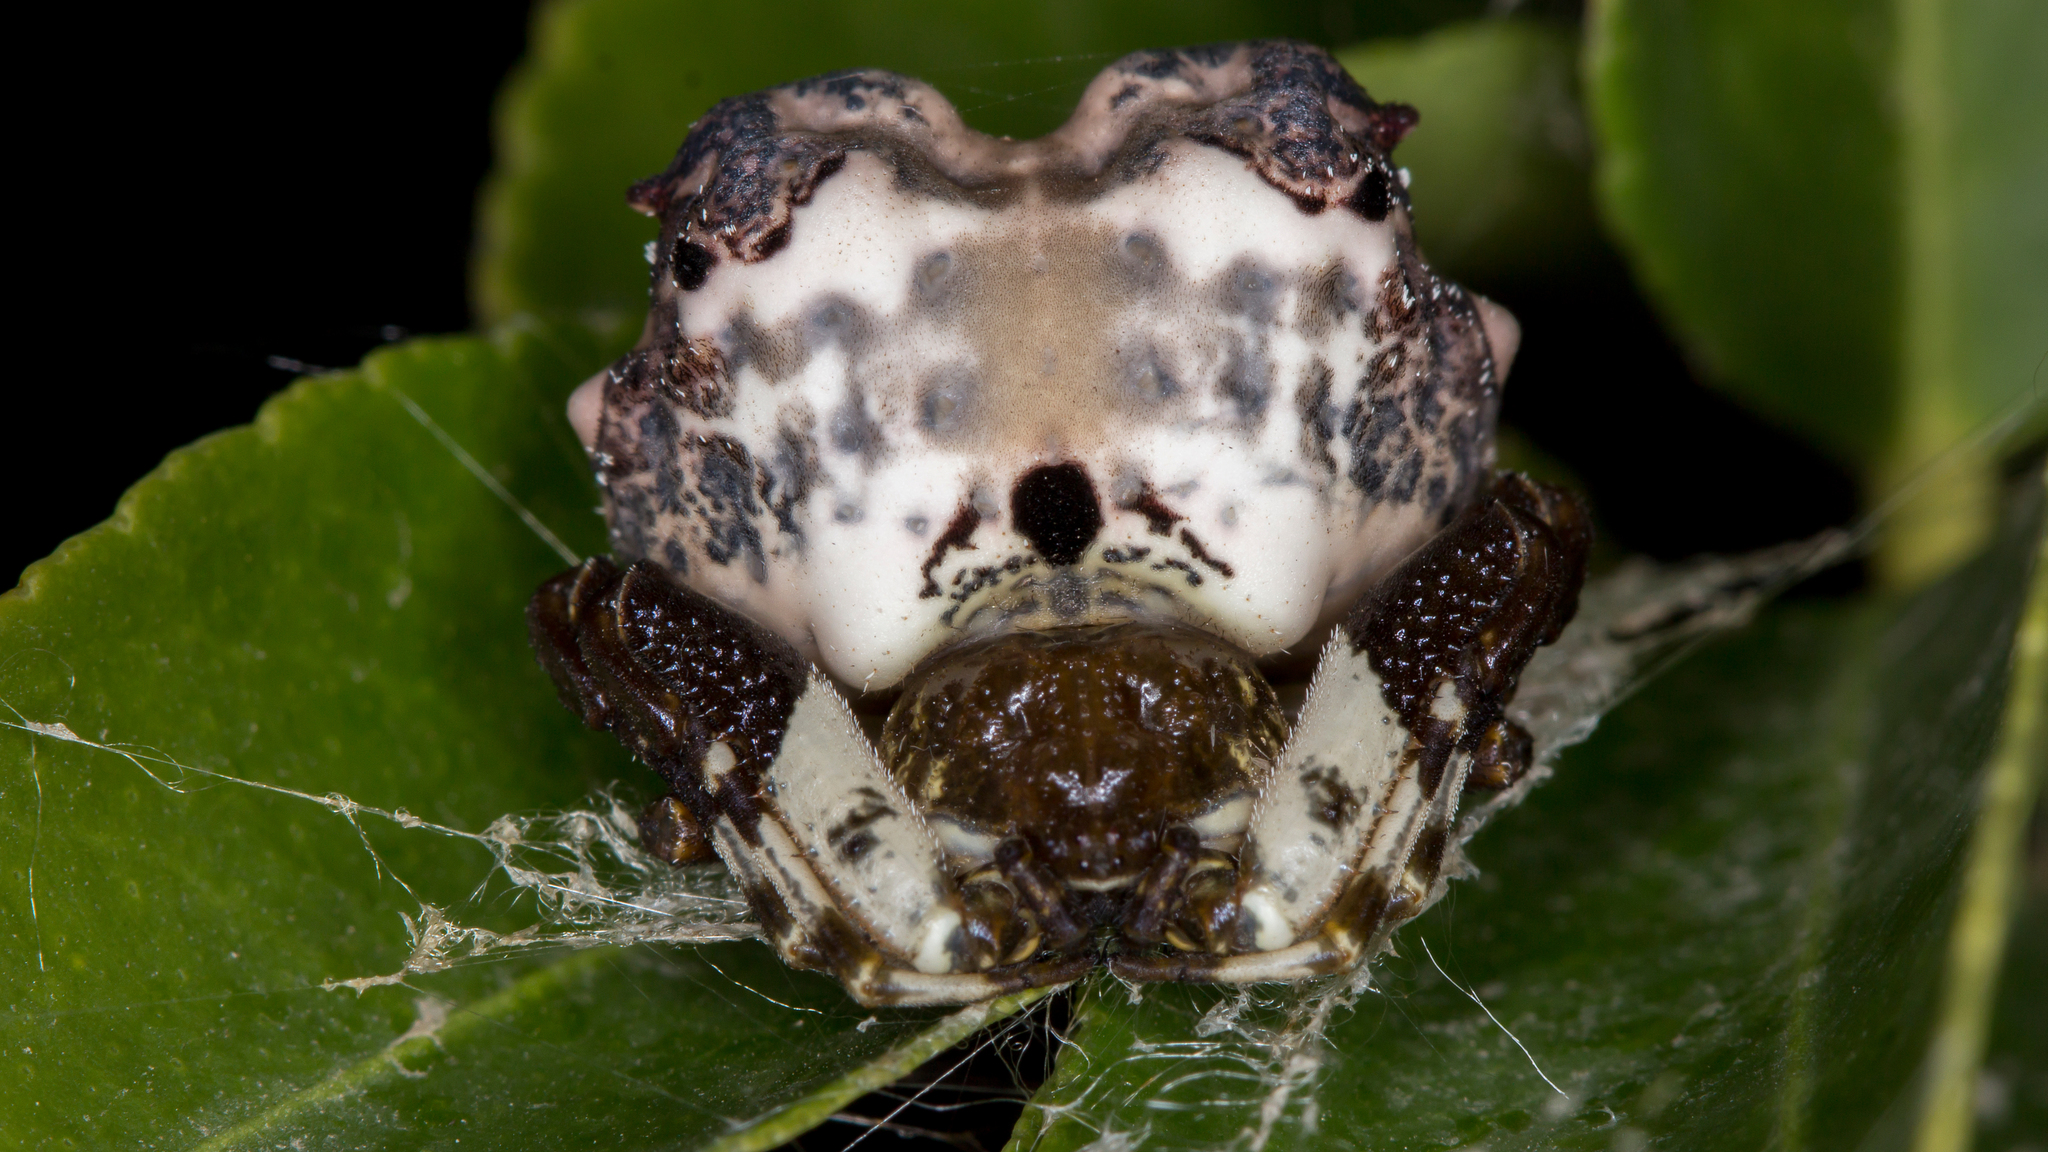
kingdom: Animalia
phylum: Arthropoda
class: Arachnida
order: Araneae
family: Araneidae
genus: Celaenia
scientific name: Celaenia excavata
